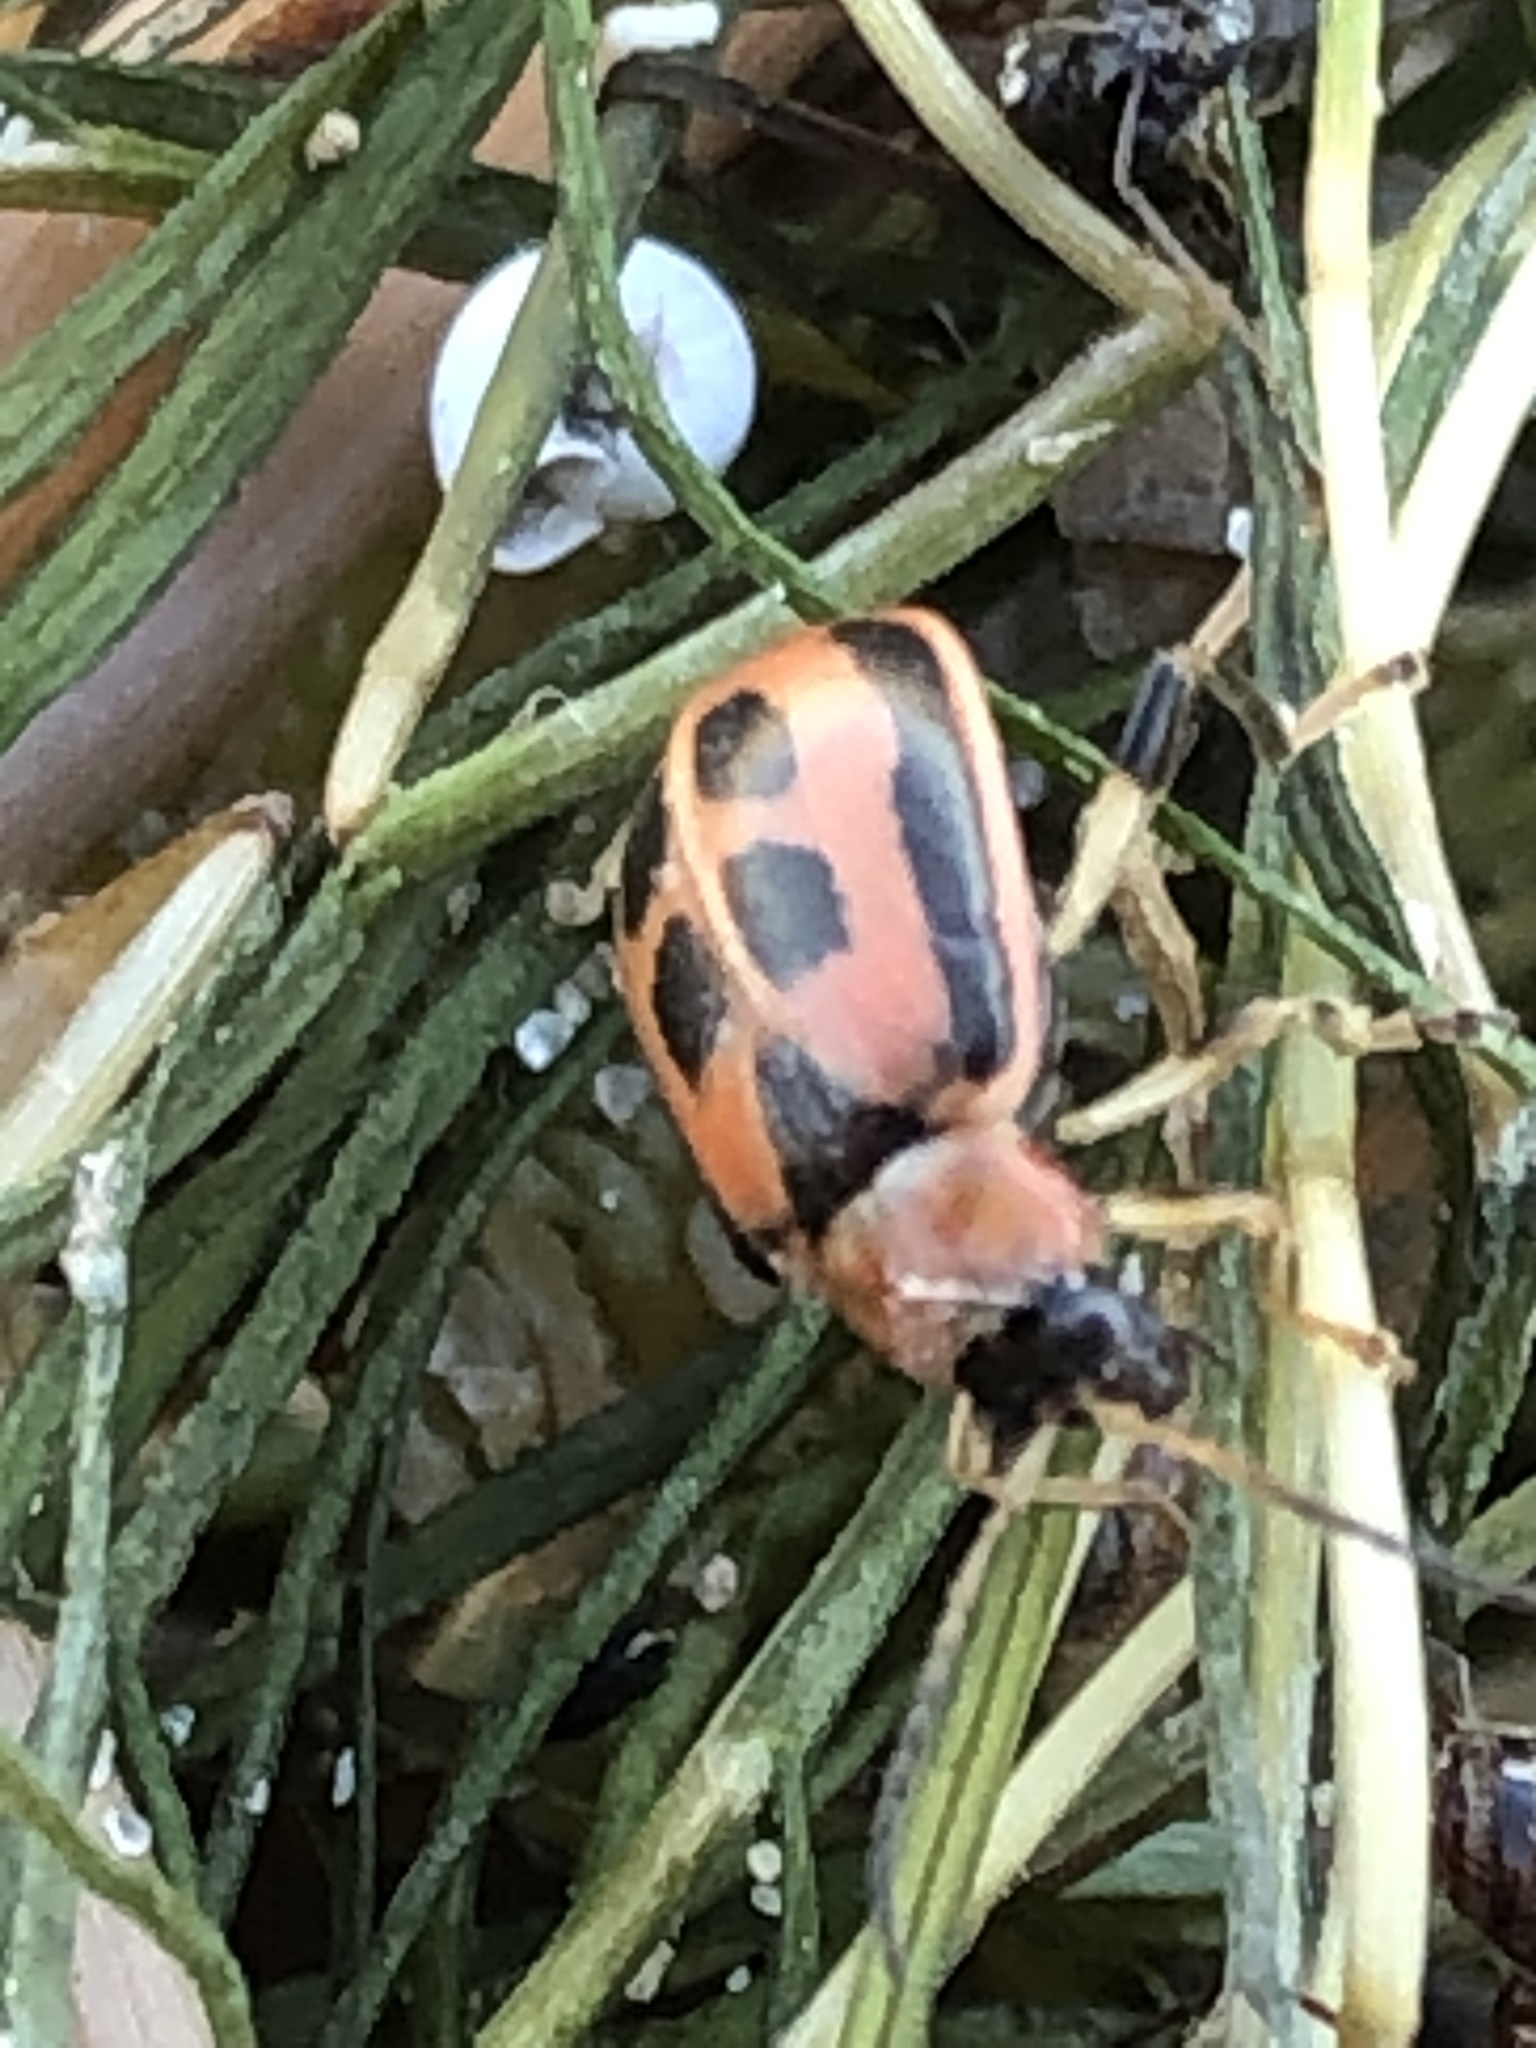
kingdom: Animalia
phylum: Arthropoda
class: Insecta
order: Coleoptera
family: Chrysomelidae
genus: Cerotoma
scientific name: Cerotoma trifurcata
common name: Bean leaf beetle
